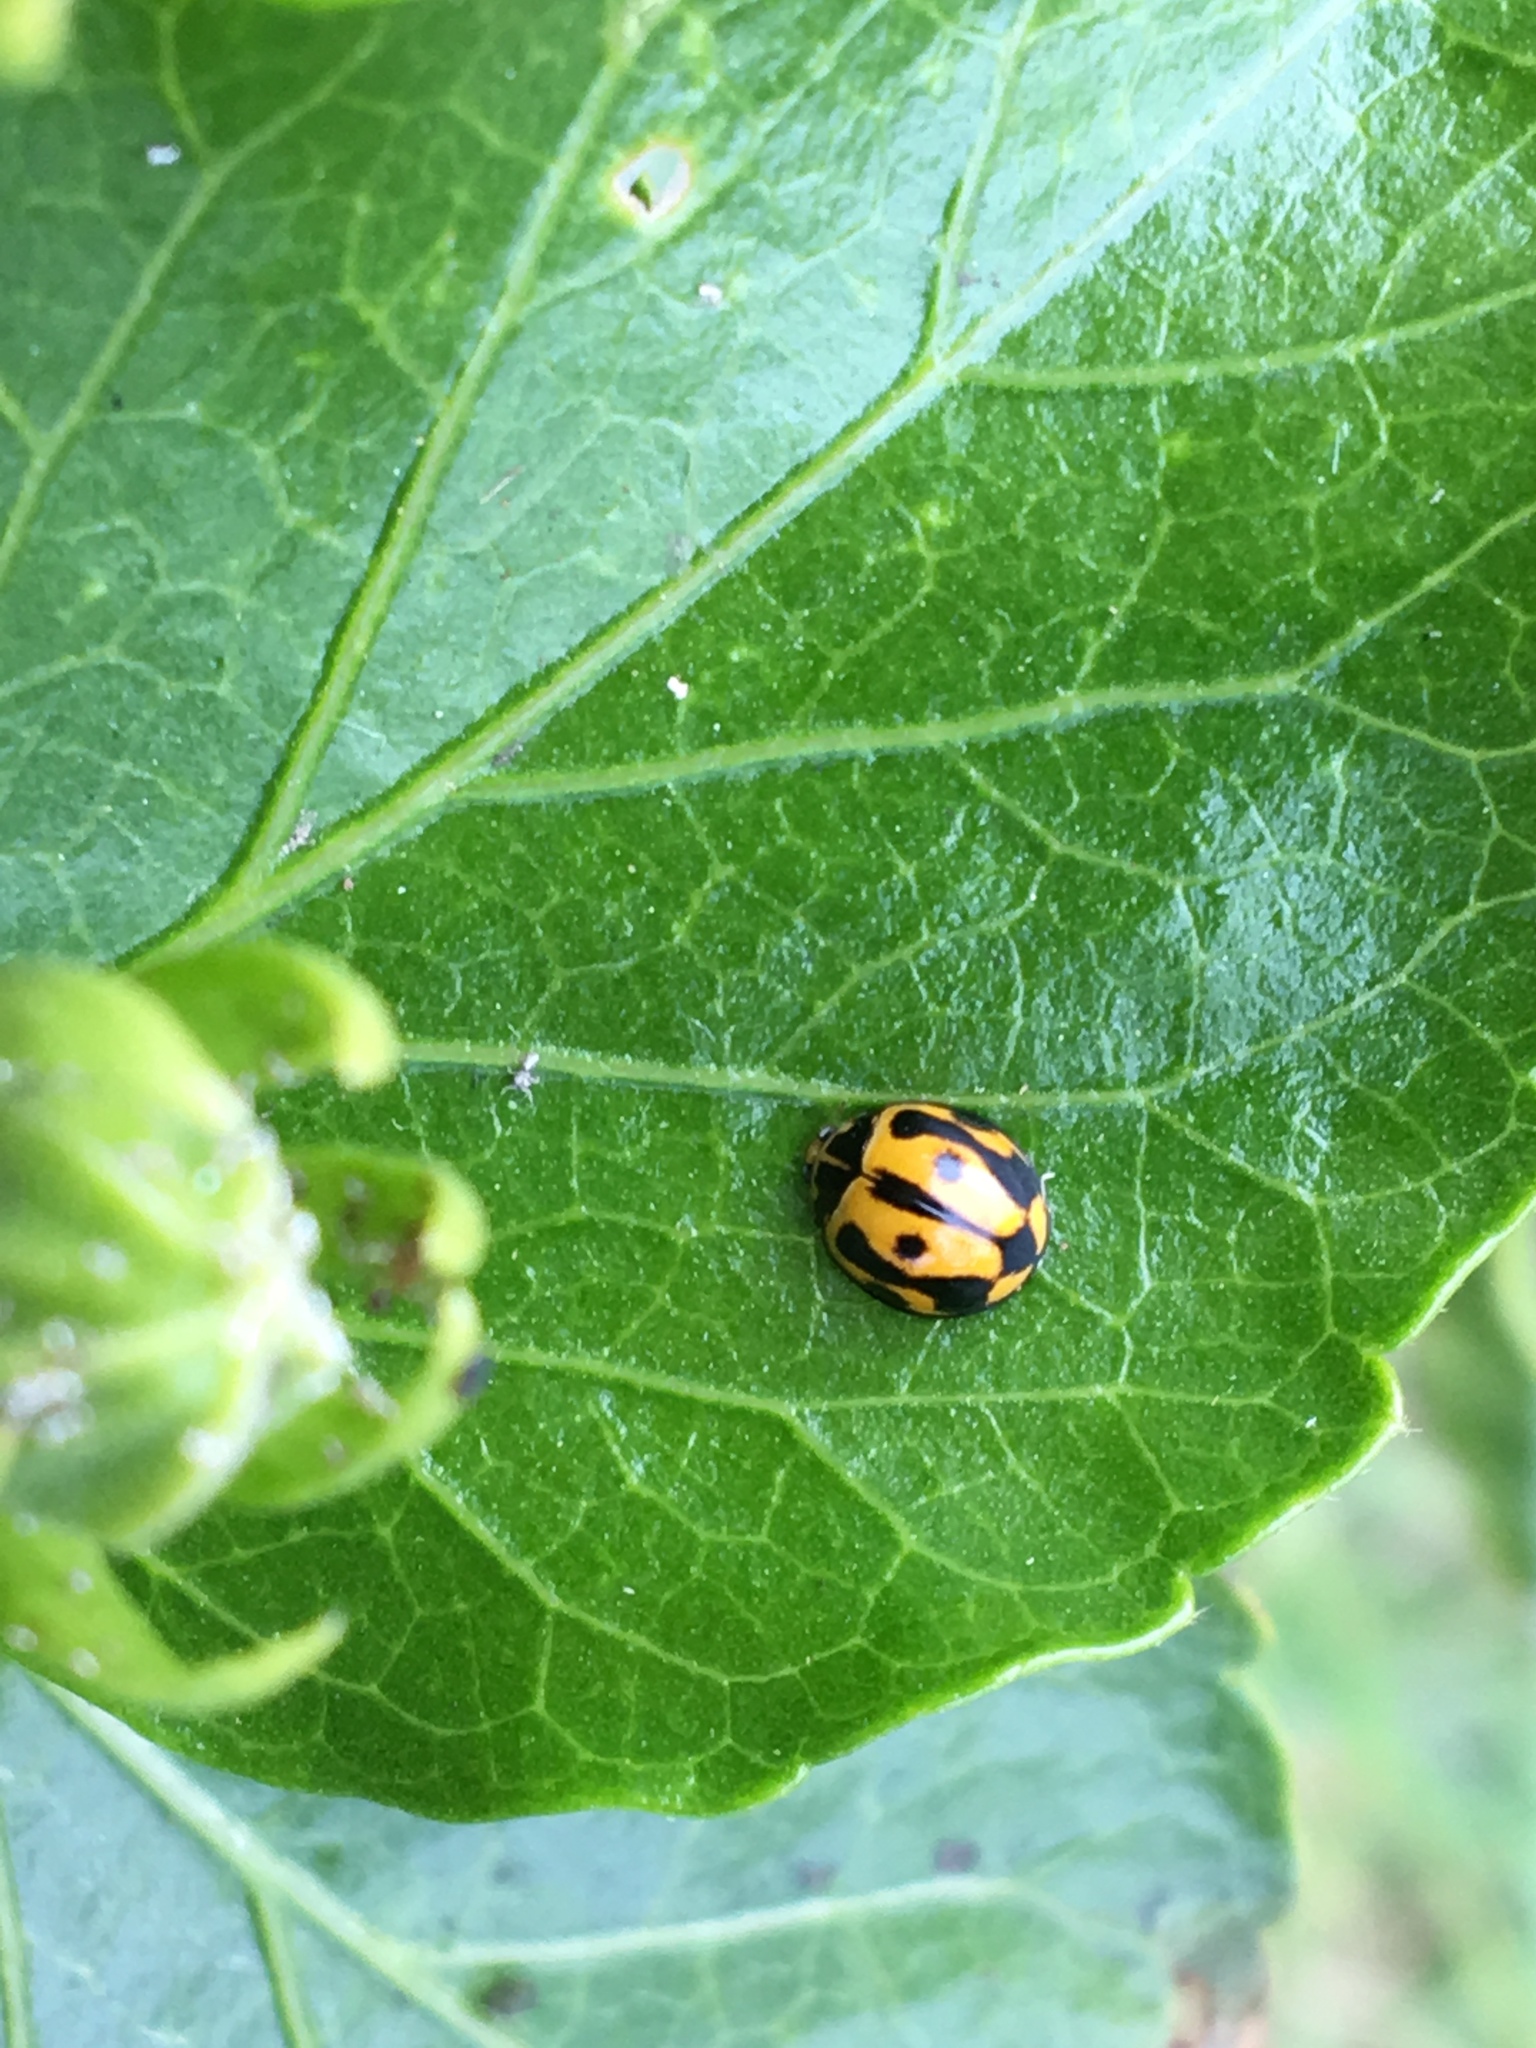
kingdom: Animalia
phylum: Arthropoda
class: Insecta
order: Coleoptera
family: Coccinellidae
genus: Coelophora
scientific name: Coelophora inaequalis
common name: Common australian lady beetle
